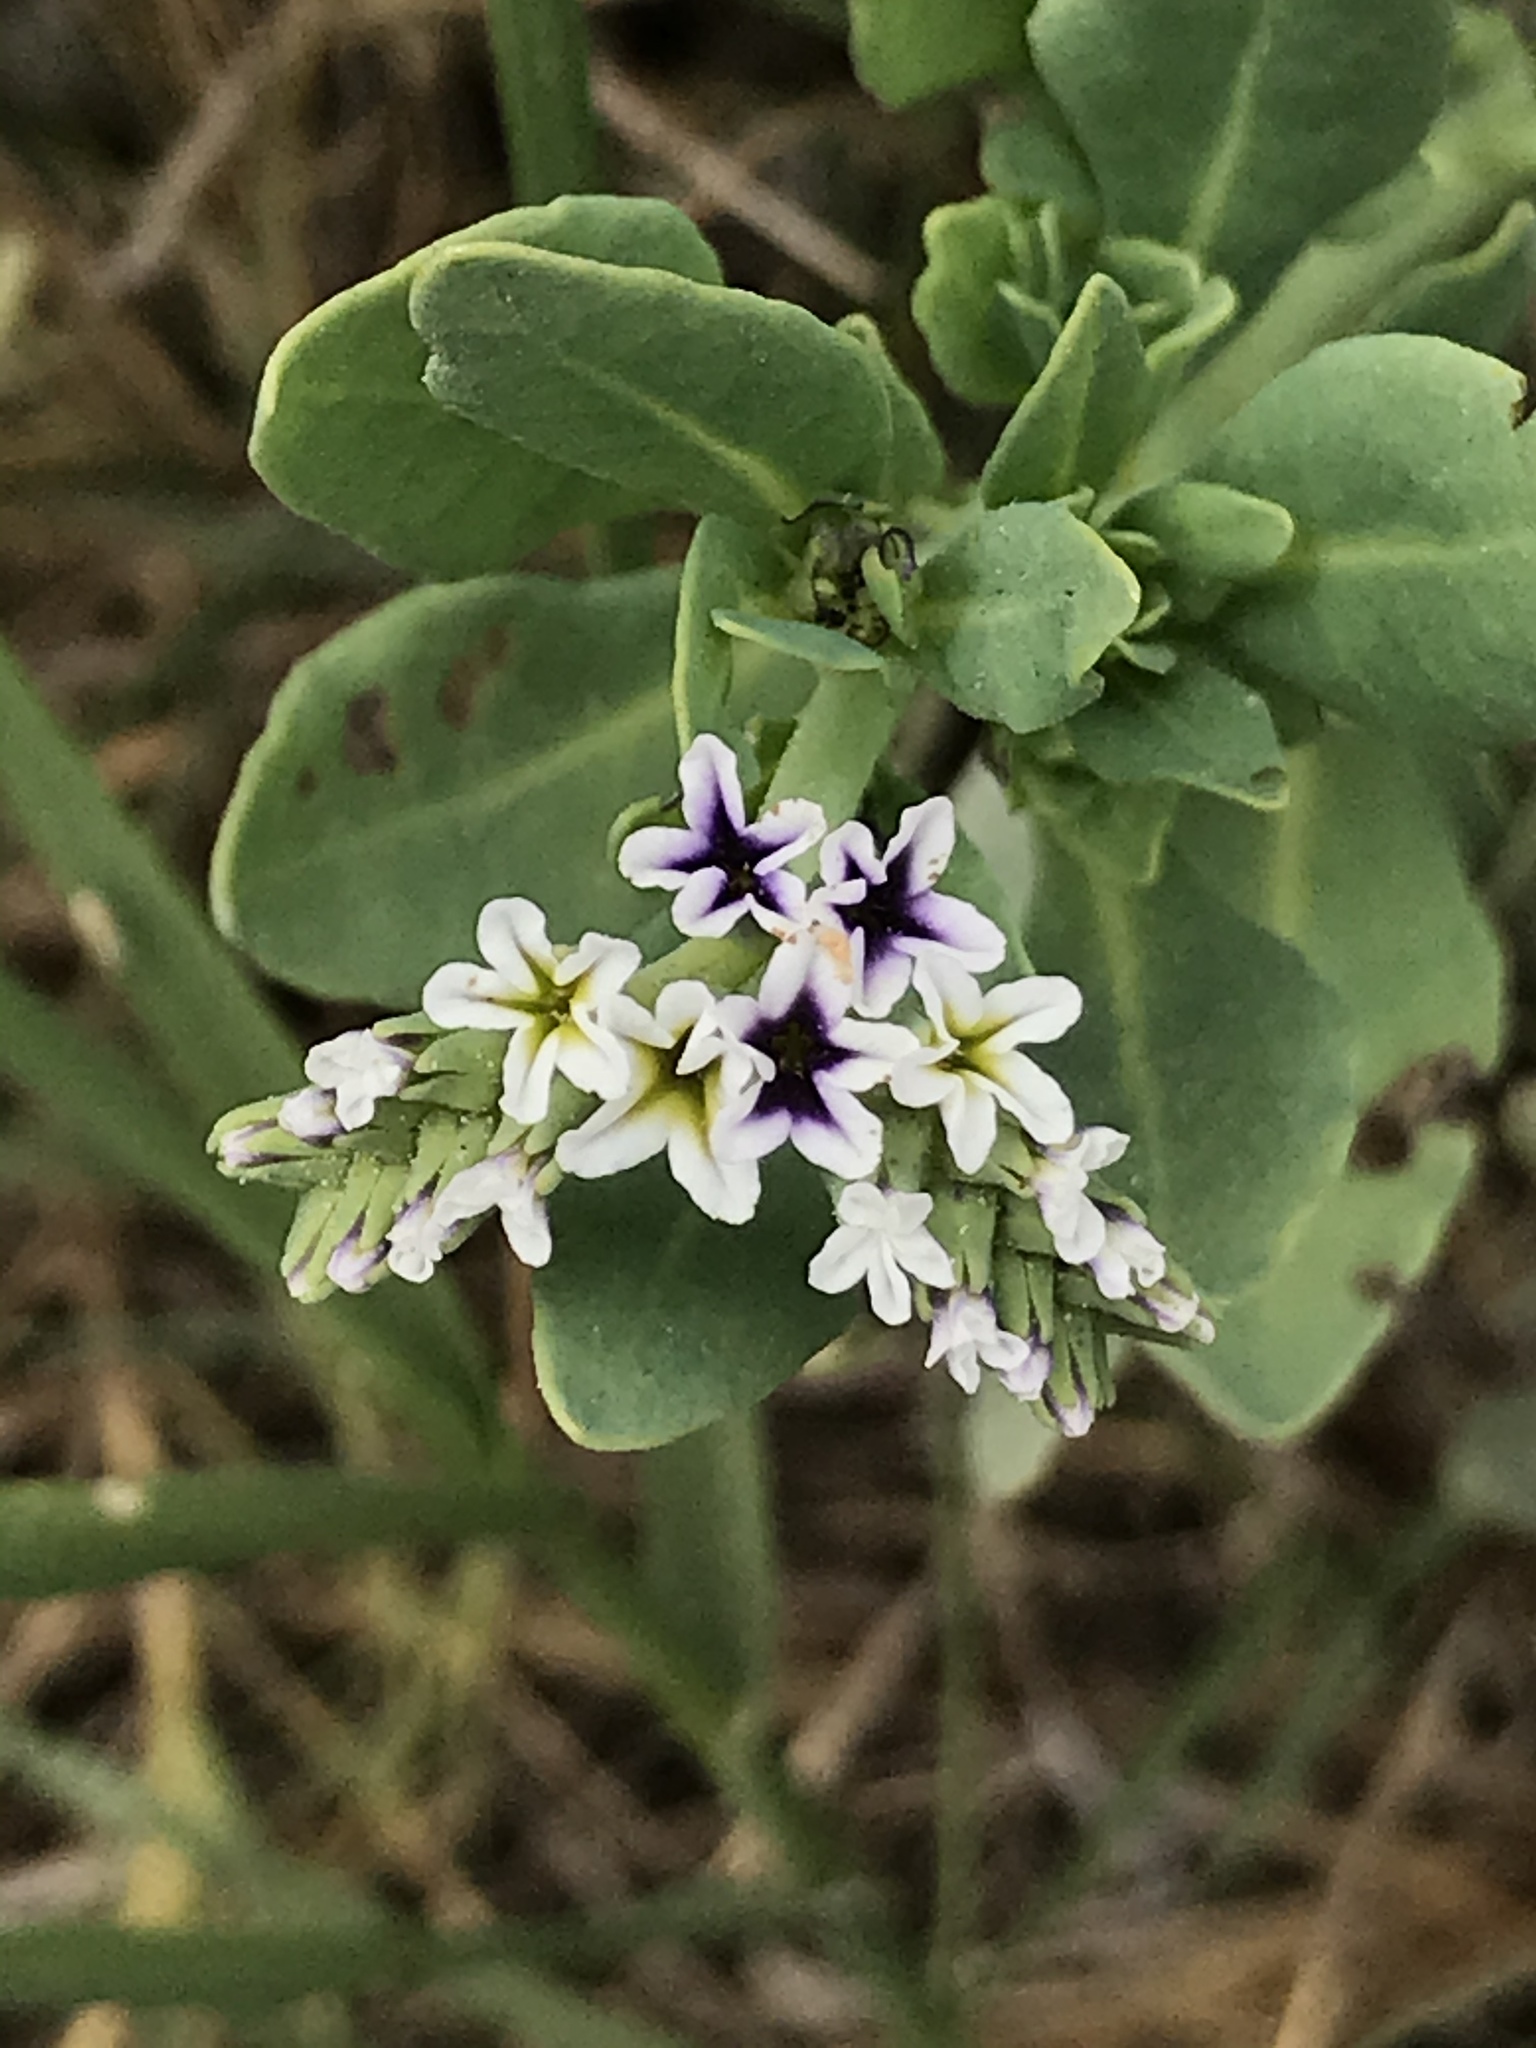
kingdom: Plantae
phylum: Tracheophyta
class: Magnoliopsida
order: Boraginales
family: Heliotropiaceae
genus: Heliotropium
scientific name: Heliotropium curassavicum
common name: Seaside heliotrope
